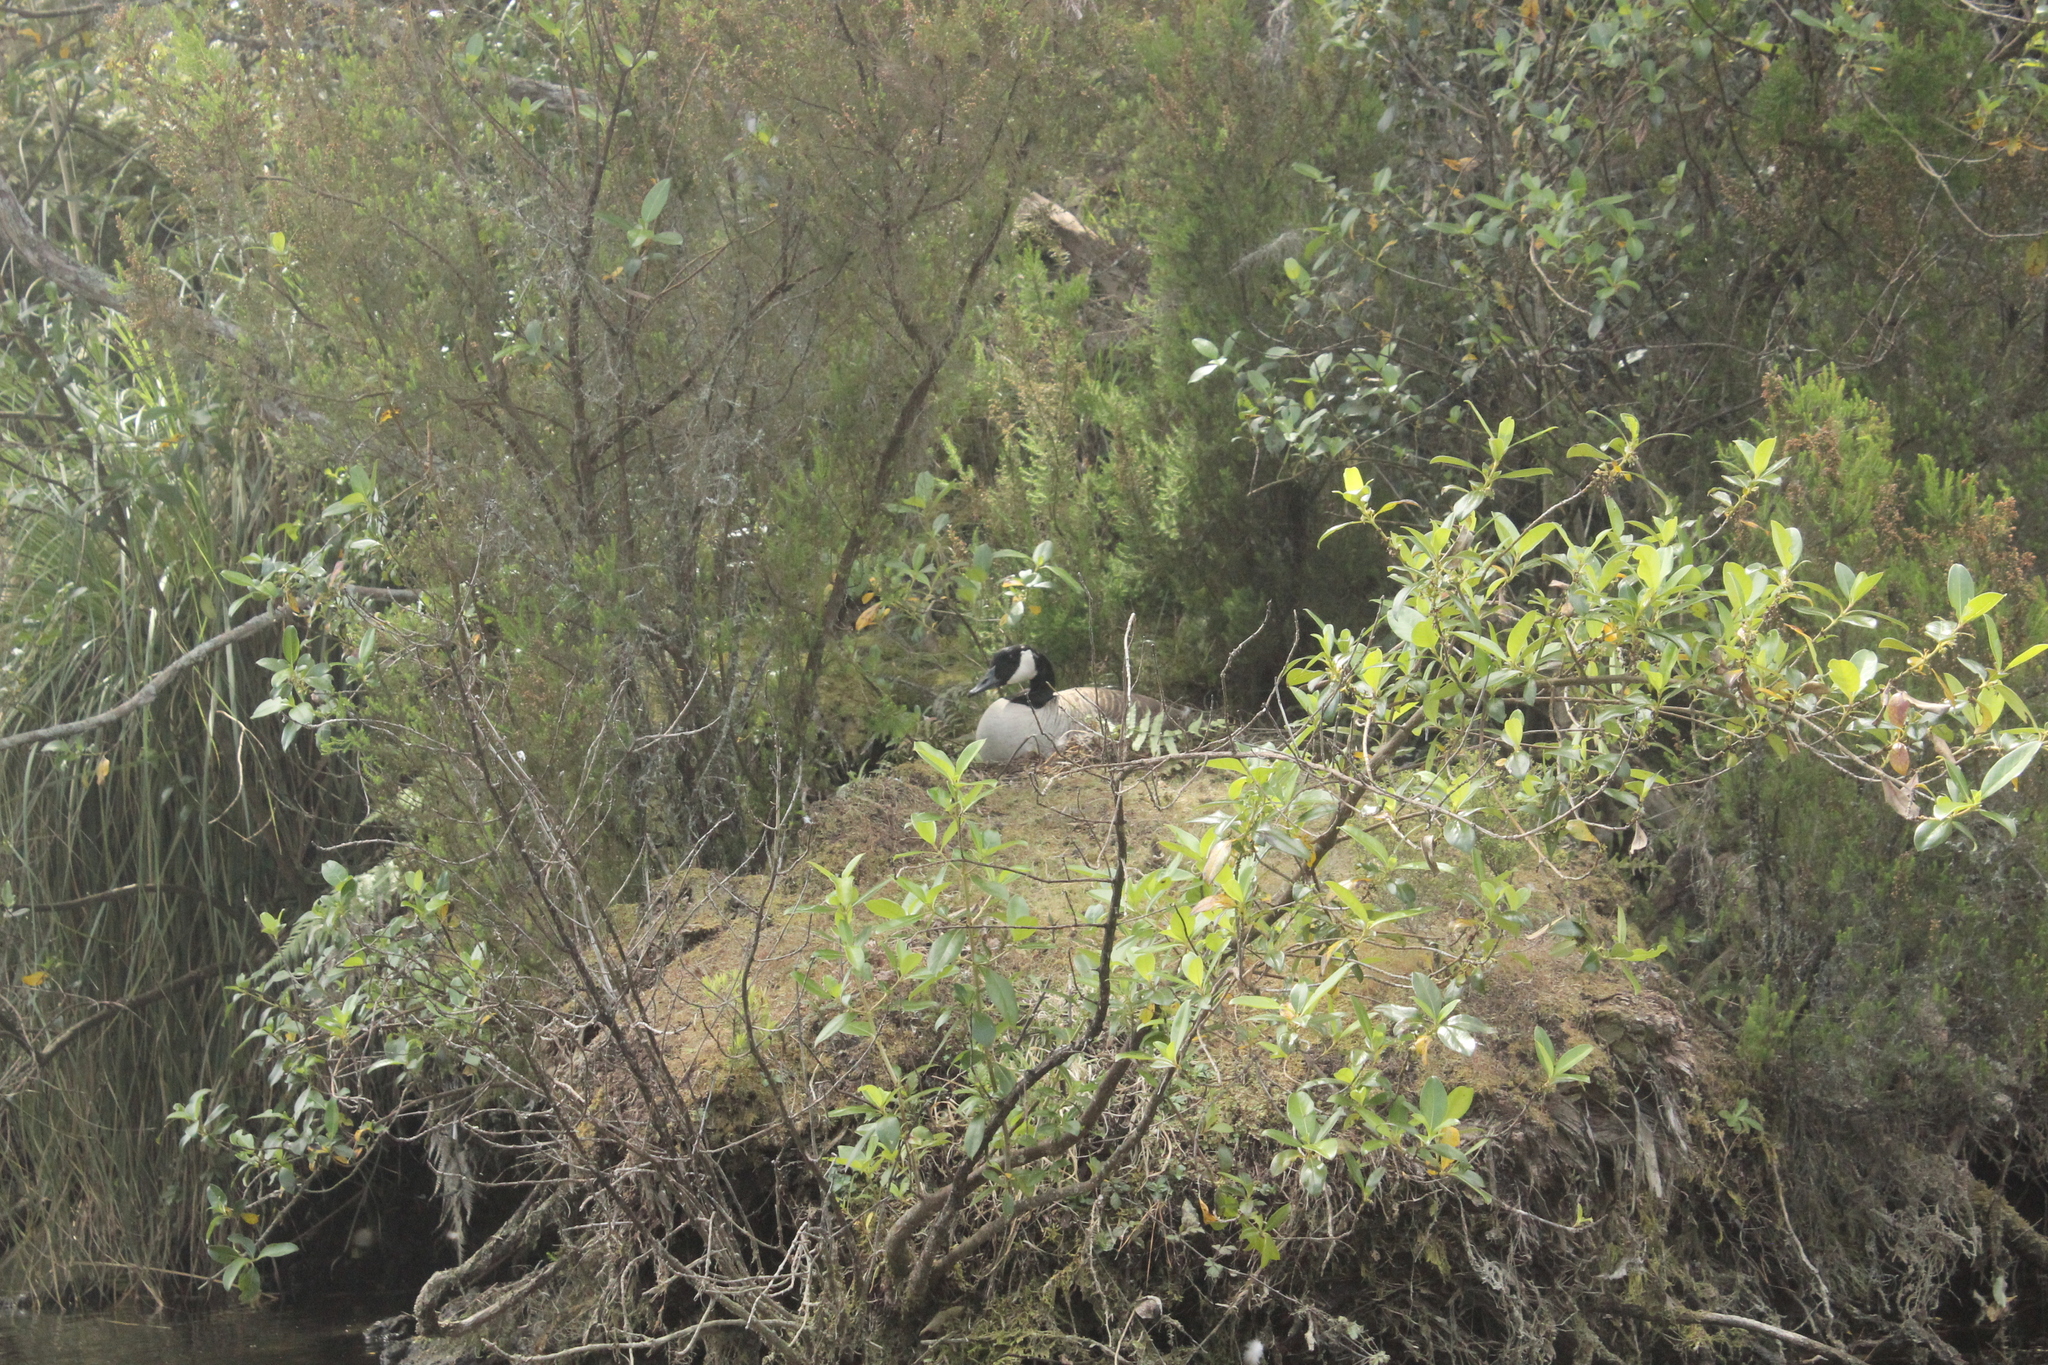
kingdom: Animalia
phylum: Chordata
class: Aves
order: Anseriformes
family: Anatidae
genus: Branta
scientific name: Branta canadensis
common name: Canada goose
